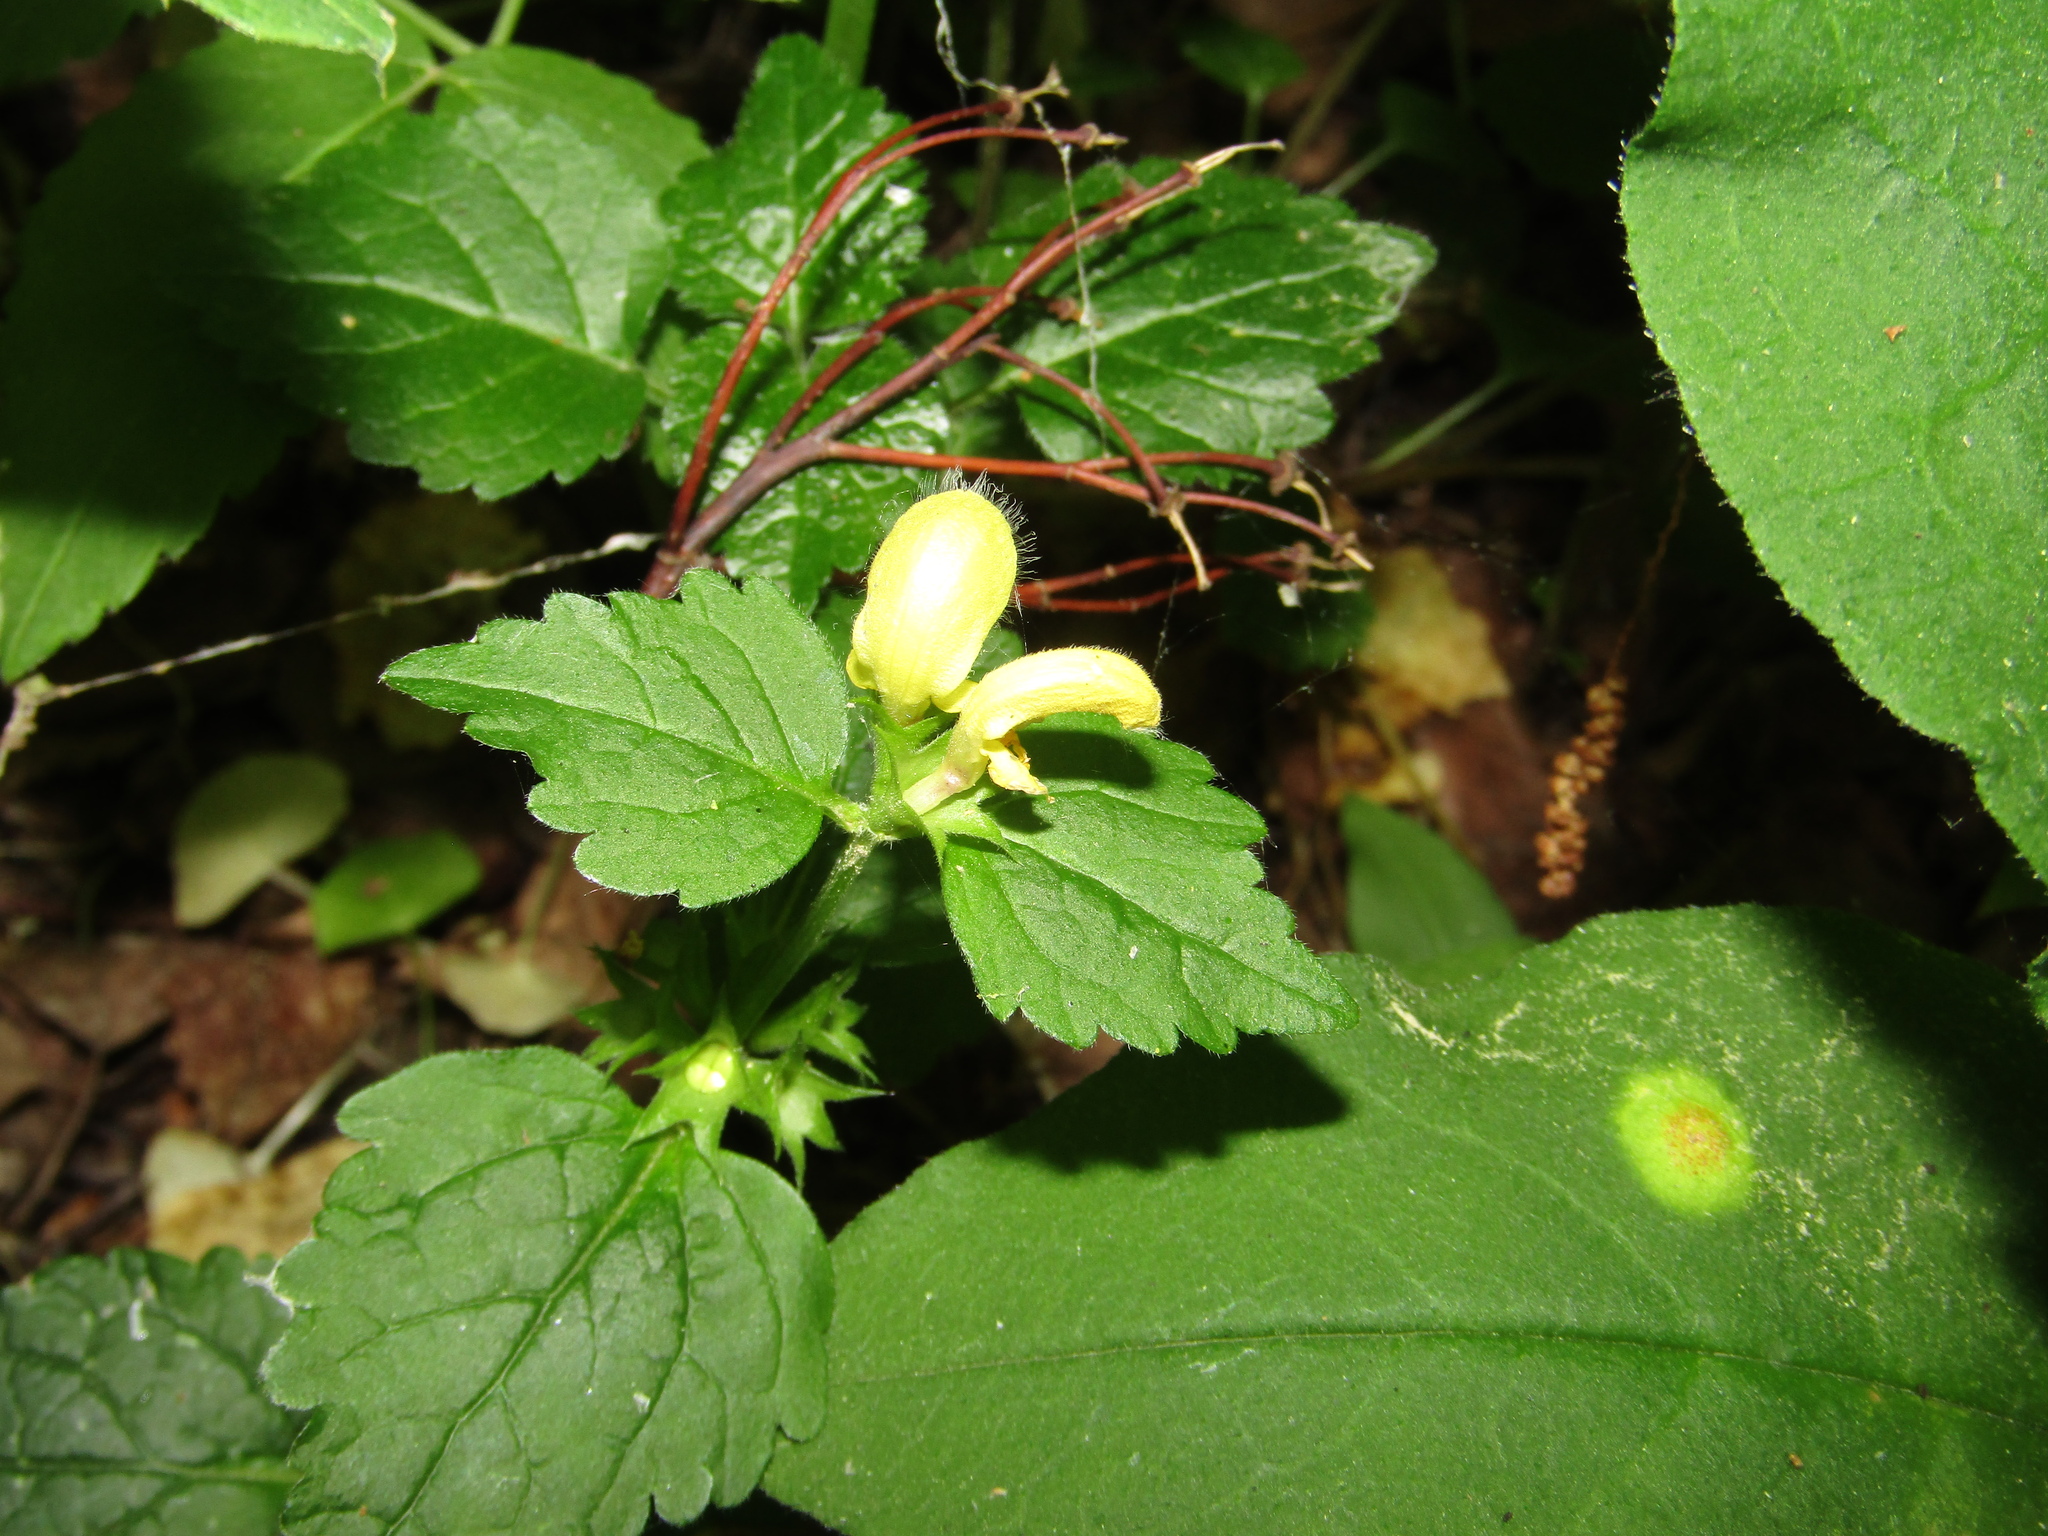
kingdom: Plantae
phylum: Tracheophyta
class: Magnoliopsida
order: Lamiales
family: Lamiaceae
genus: Lamium
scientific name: Lamium galeobdolon
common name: Yellow archangel
